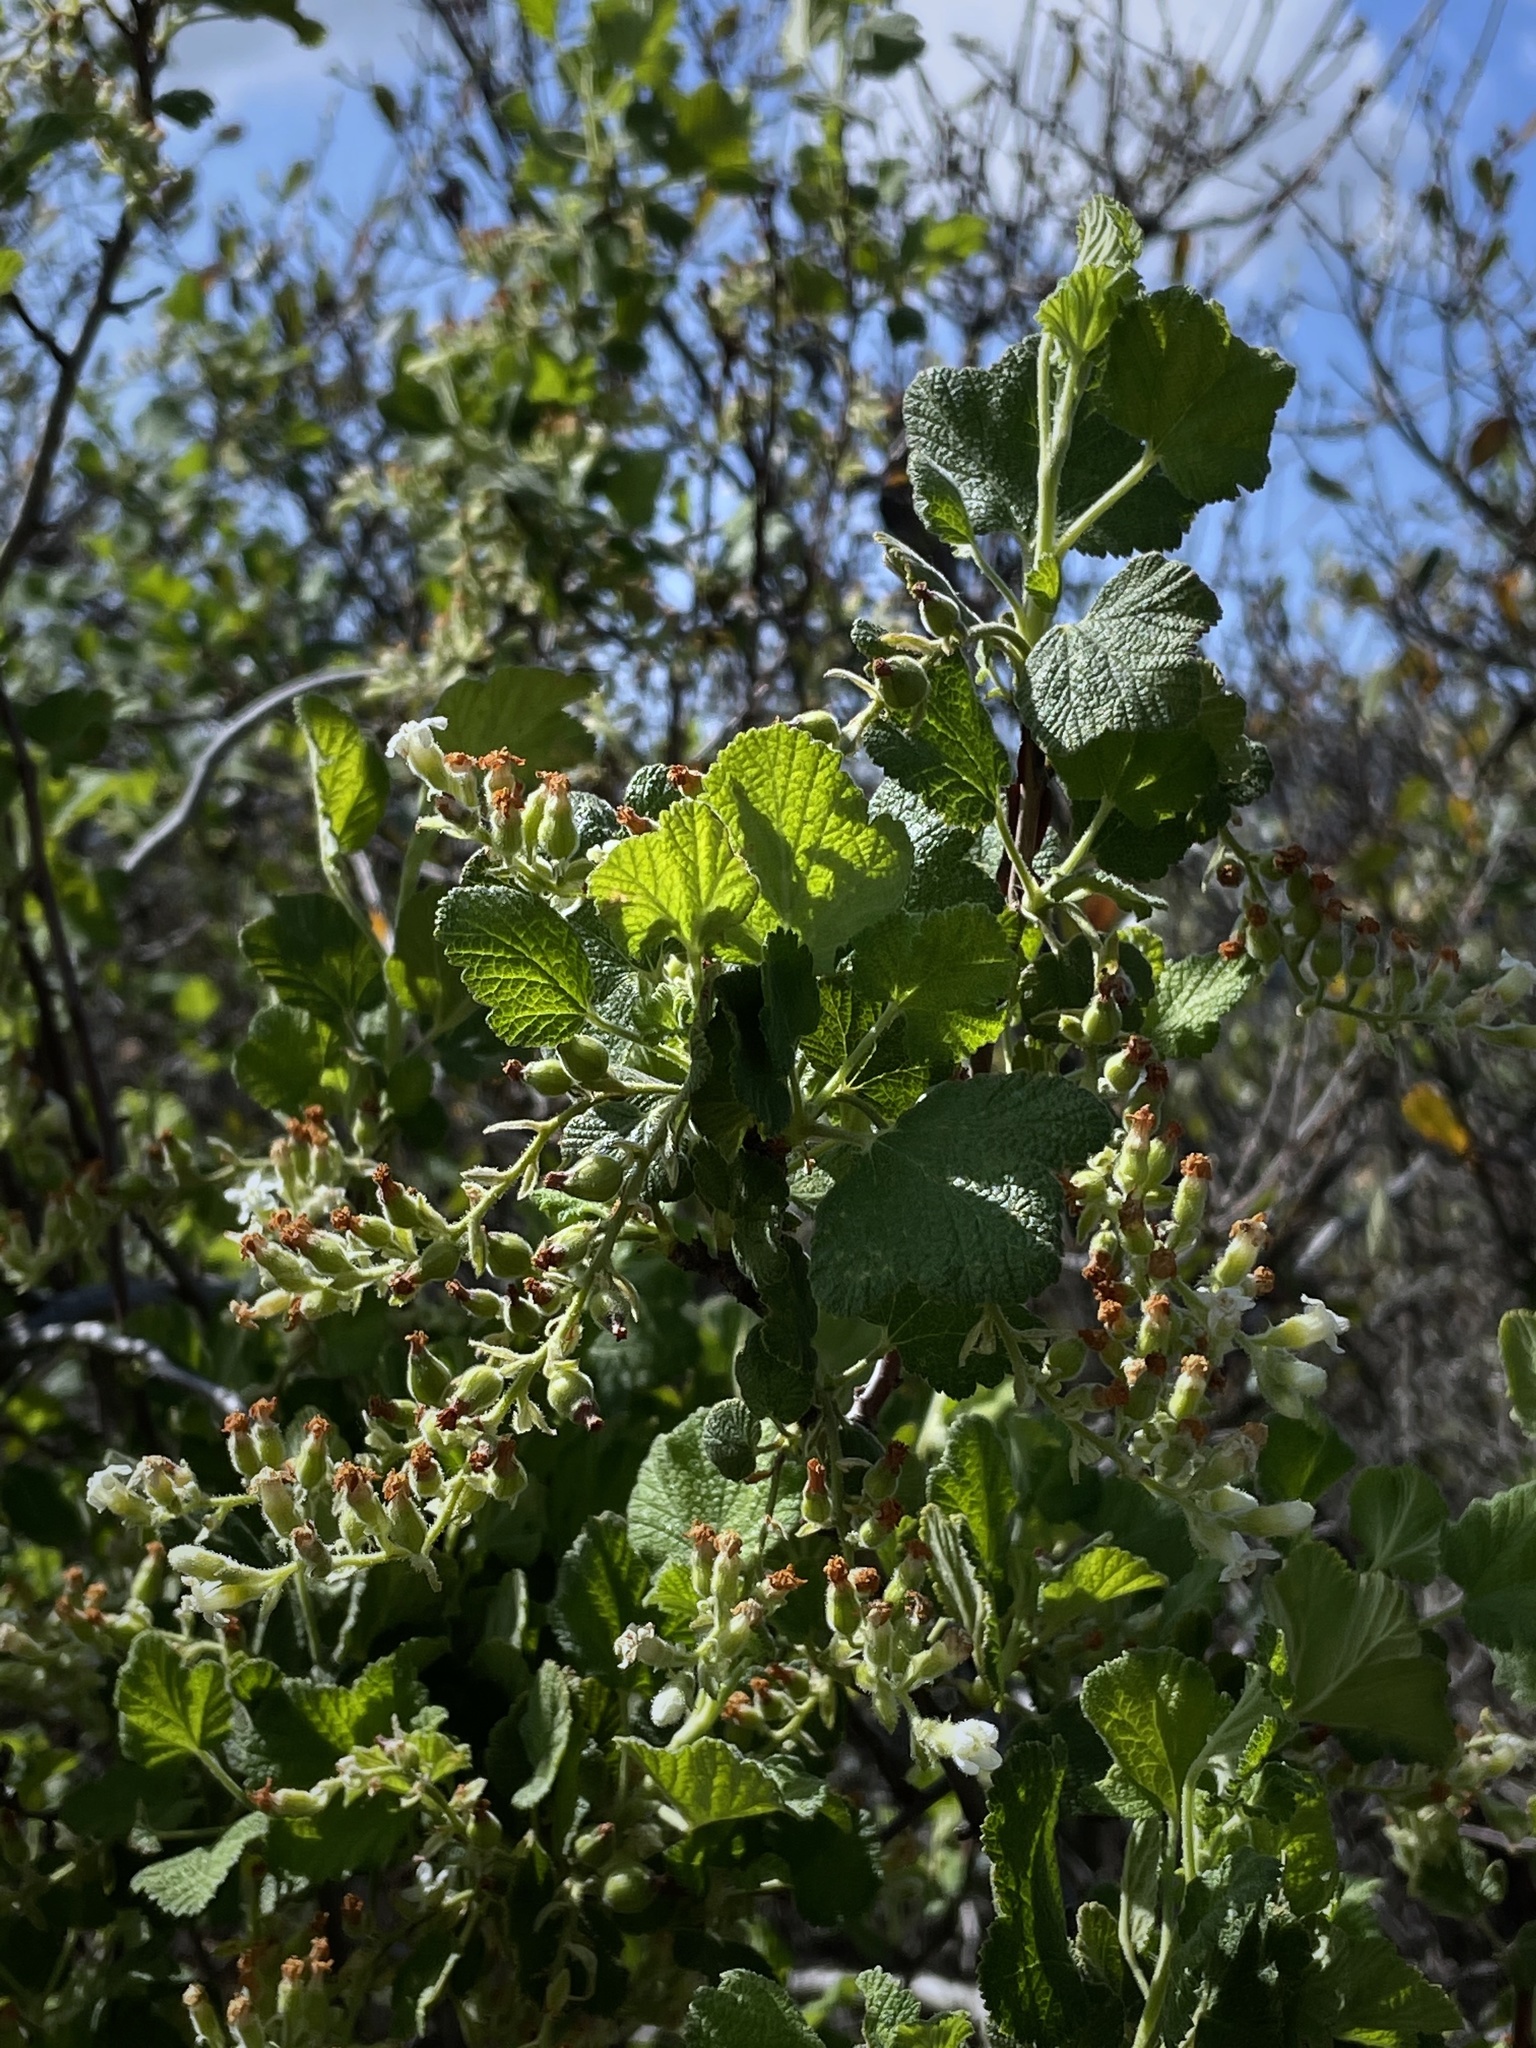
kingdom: Plantae
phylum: Tracheophyta
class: Magnoliopsida
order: Saxifragales
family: Grossulariaceae
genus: Ribes
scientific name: Ribes indecorum
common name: White-flower currant
